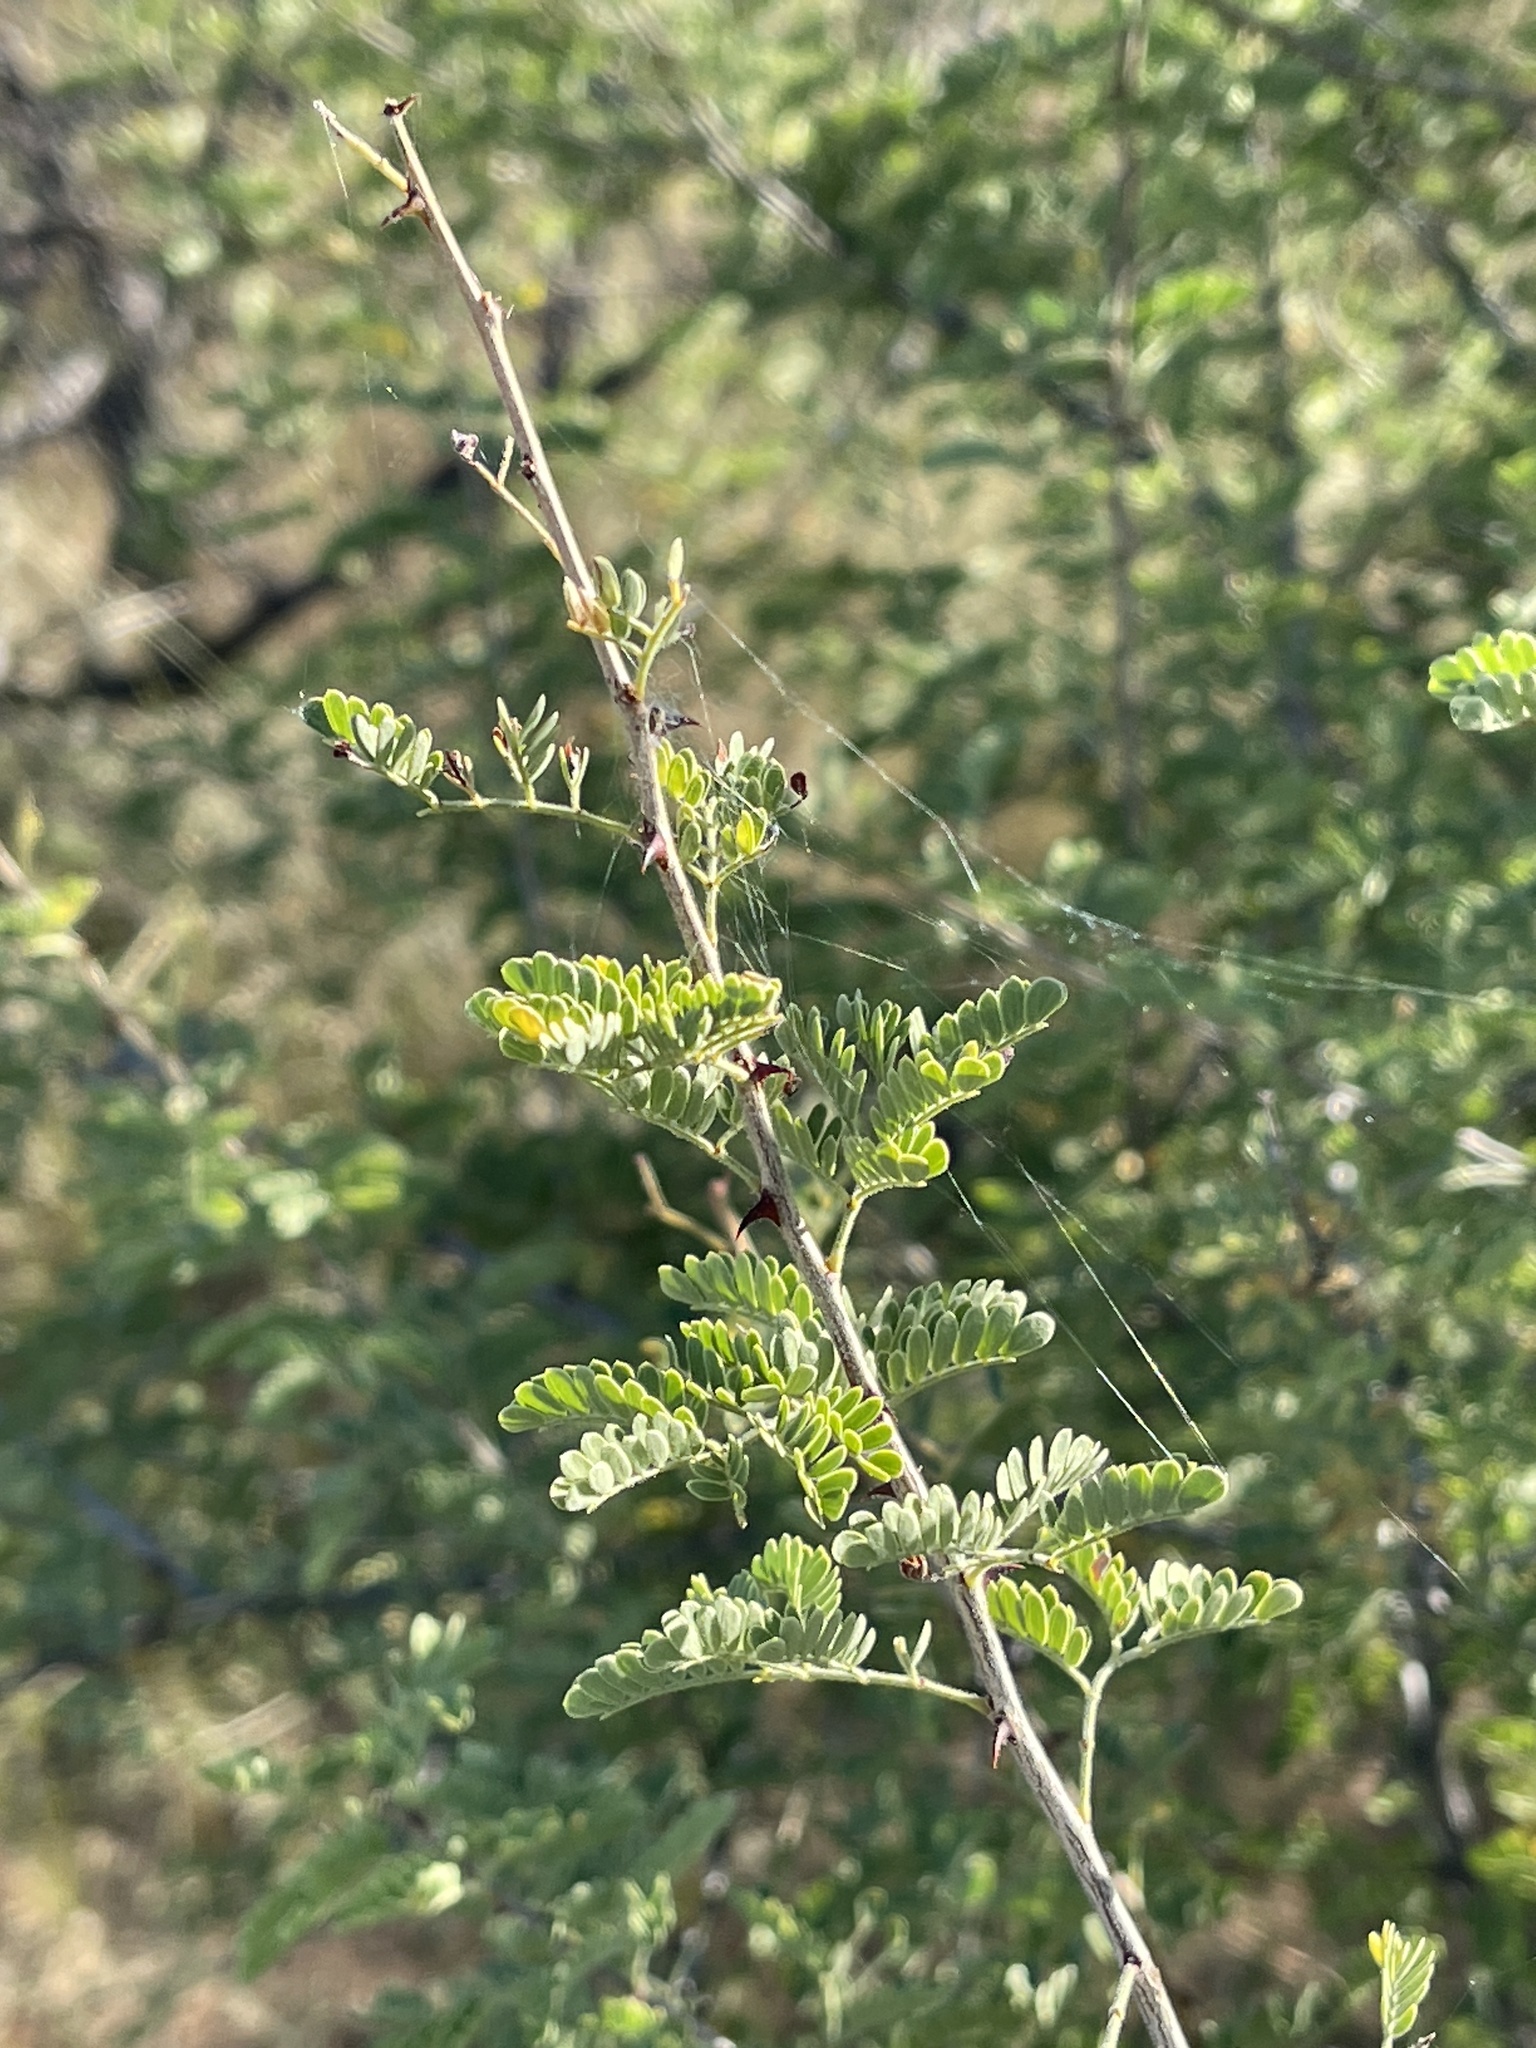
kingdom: Plantae
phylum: Tracheophyta
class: Magnoliopsida
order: Fabales
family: Fabaceae
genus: Senegalia
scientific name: Senegalia greggii
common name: Texas-mimosa
